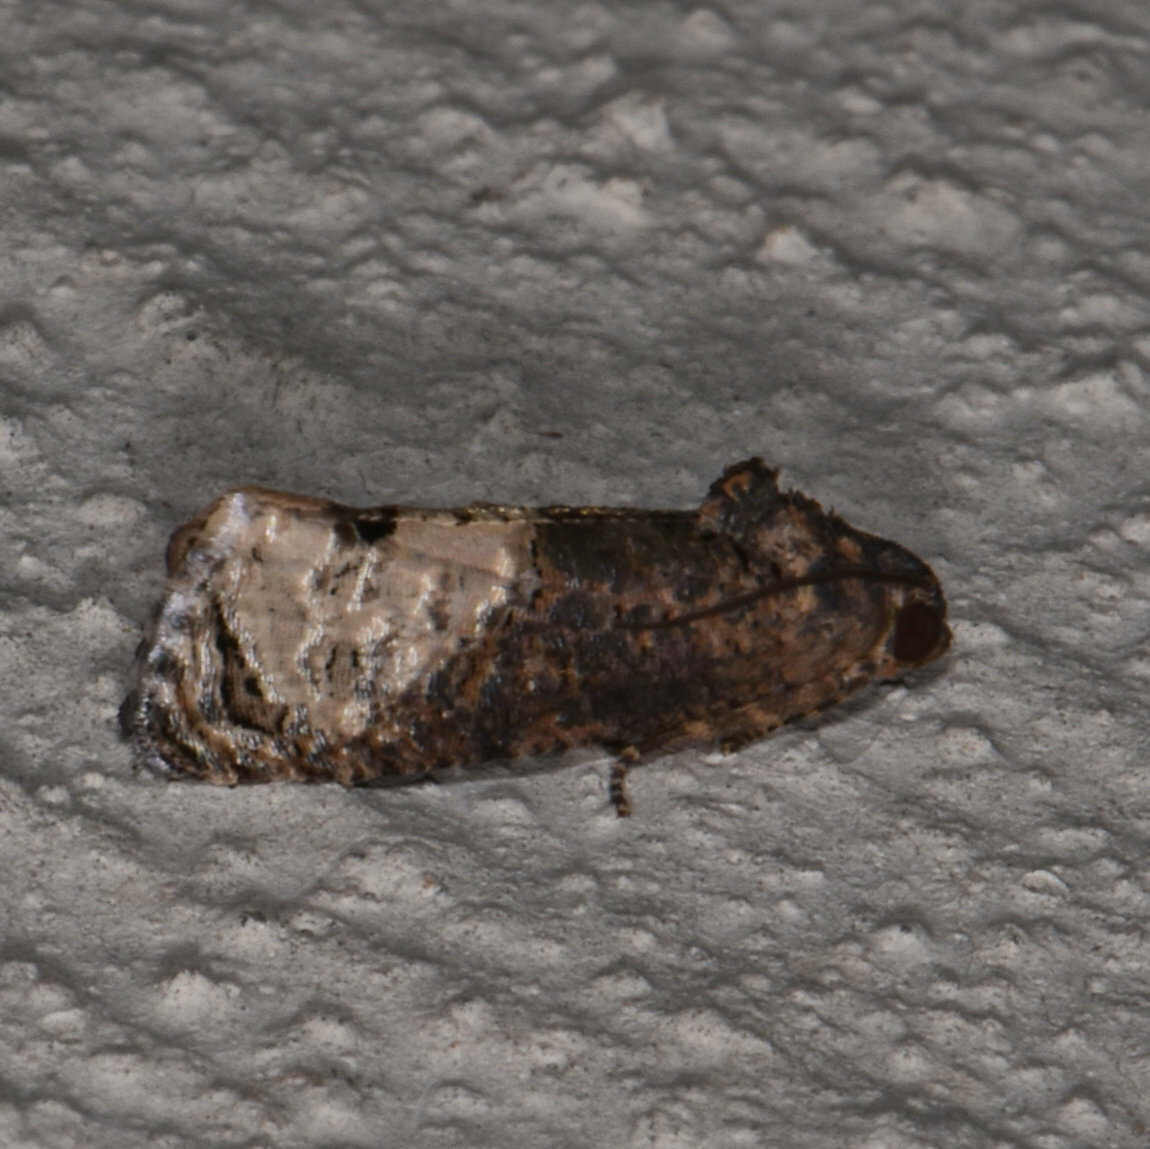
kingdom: Animalia
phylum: Arthropoda
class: Insecta
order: Lepidoptera
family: Tortricidae
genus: Ecdytolopha
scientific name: Ecdytolopha insiticiana
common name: Locust twig borer moth
